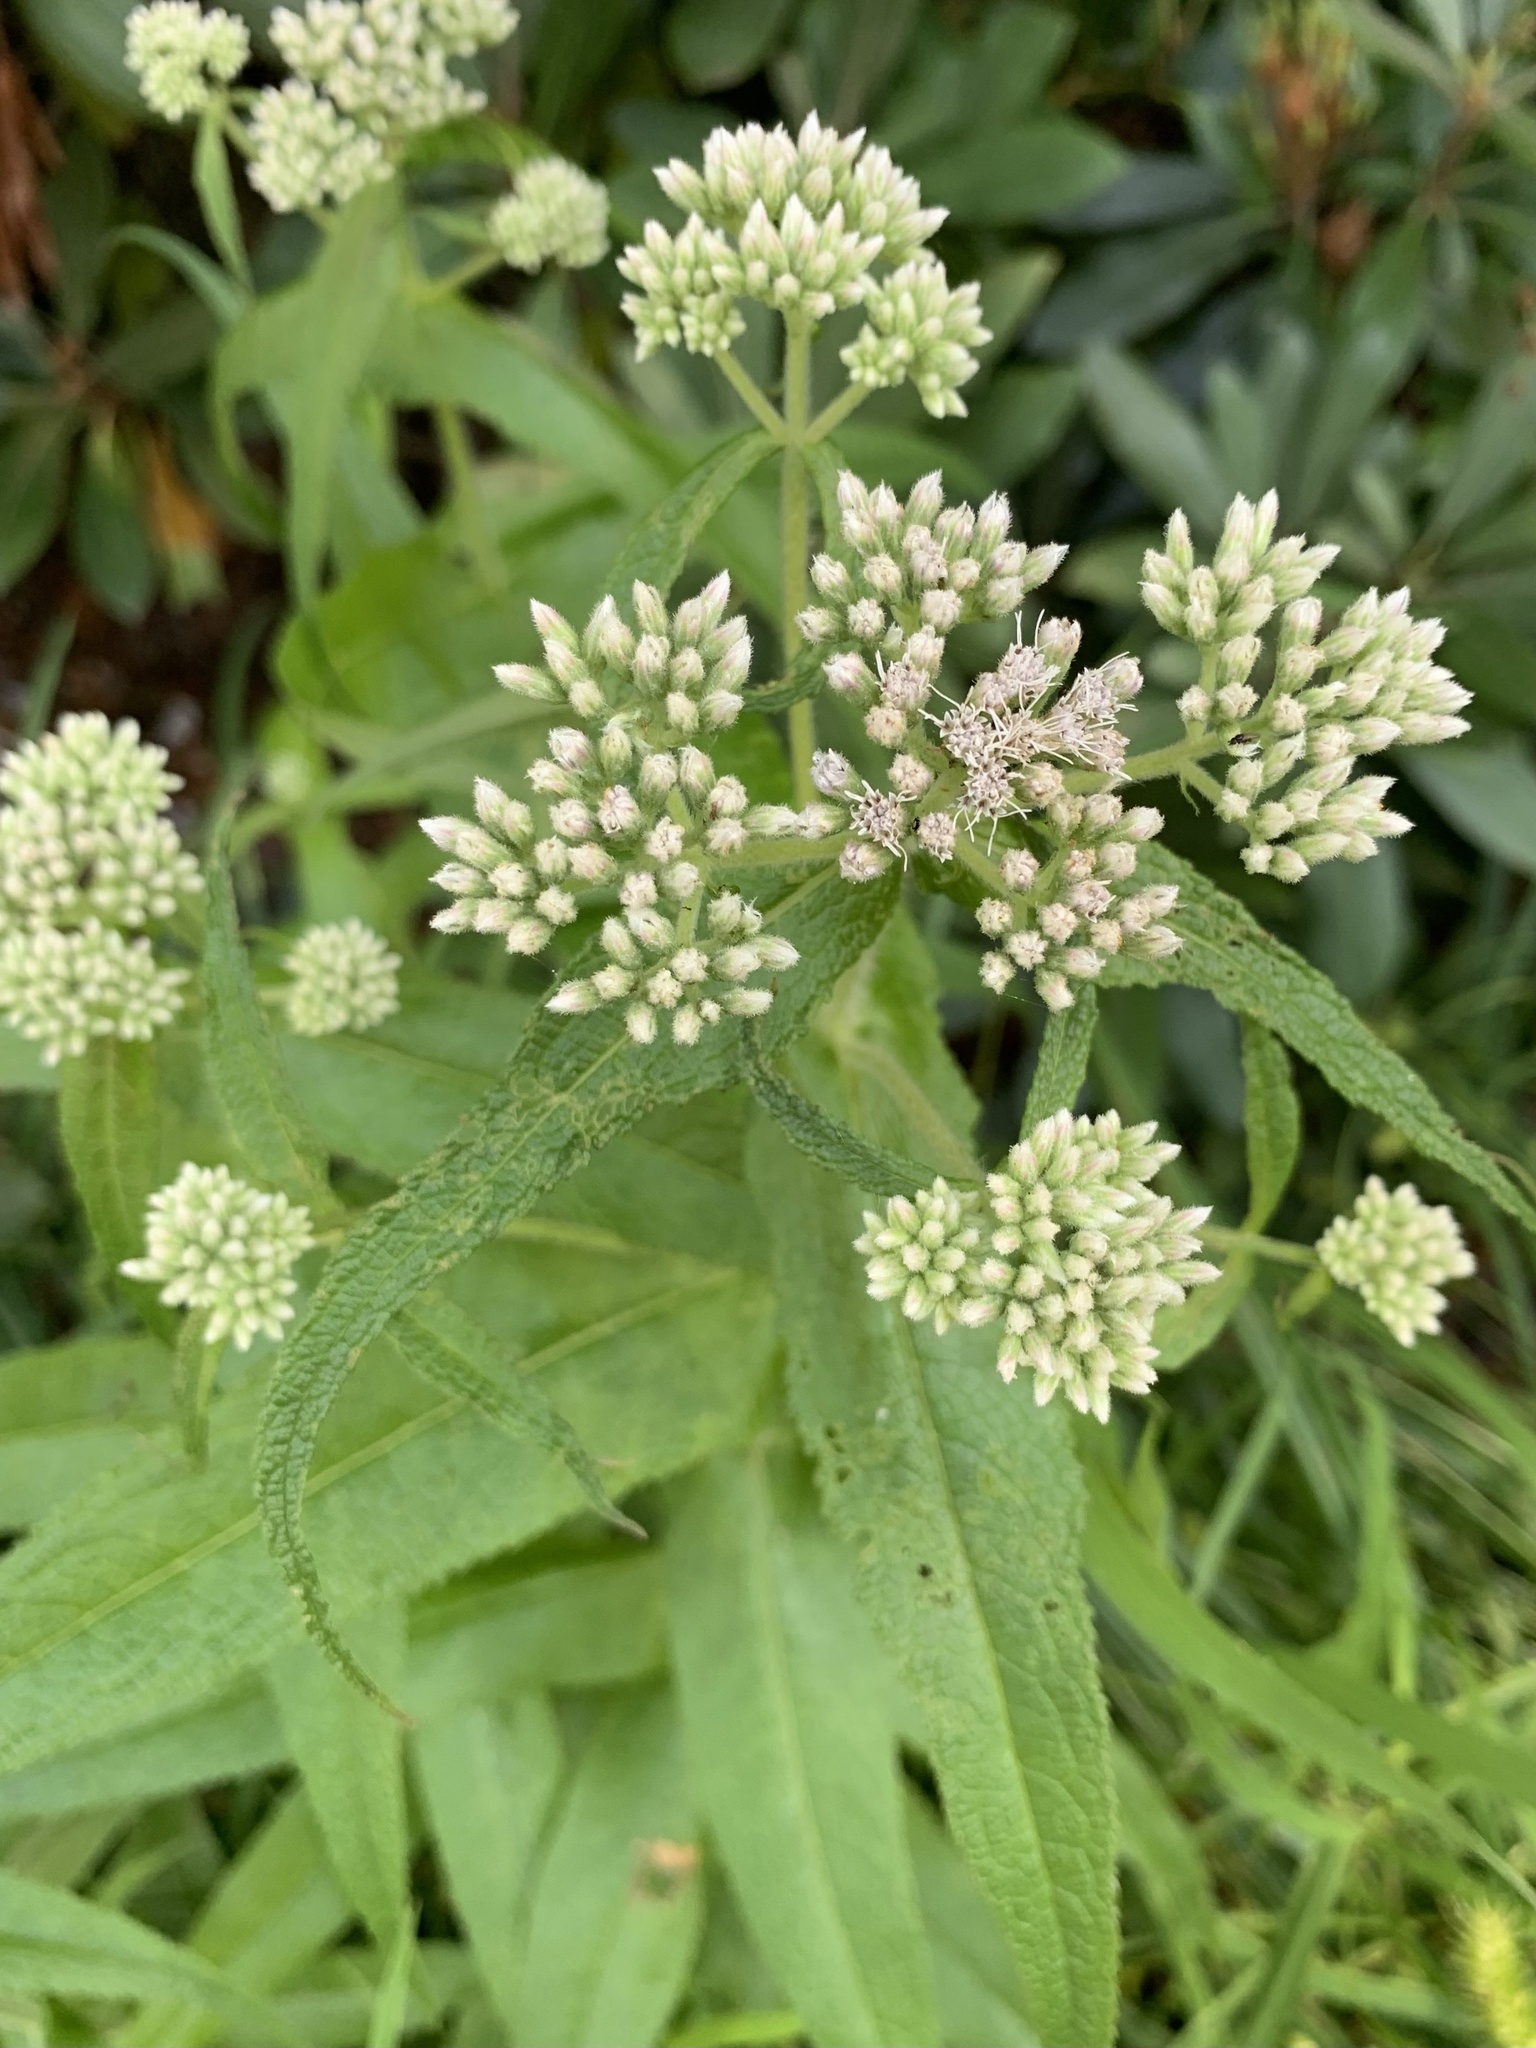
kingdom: Plantae
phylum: Tracheophyta
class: Magnoliopsida
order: Asterales
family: Asteraceae
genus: Eupatorium
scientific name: Eupatorium perfoliatum
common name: Boneset
